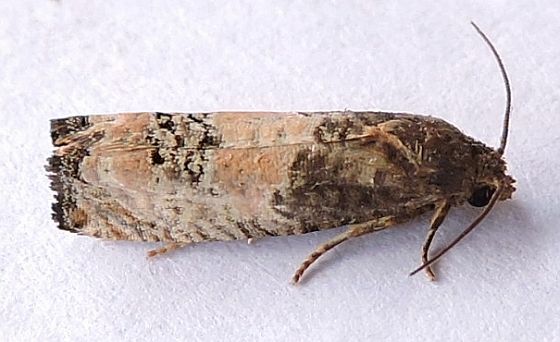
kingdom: Animalia
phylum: Arthropoda
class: Insecta
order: Lepidoptera
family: Tortricidae
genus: Epiblema
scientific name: Epiblema desertana
